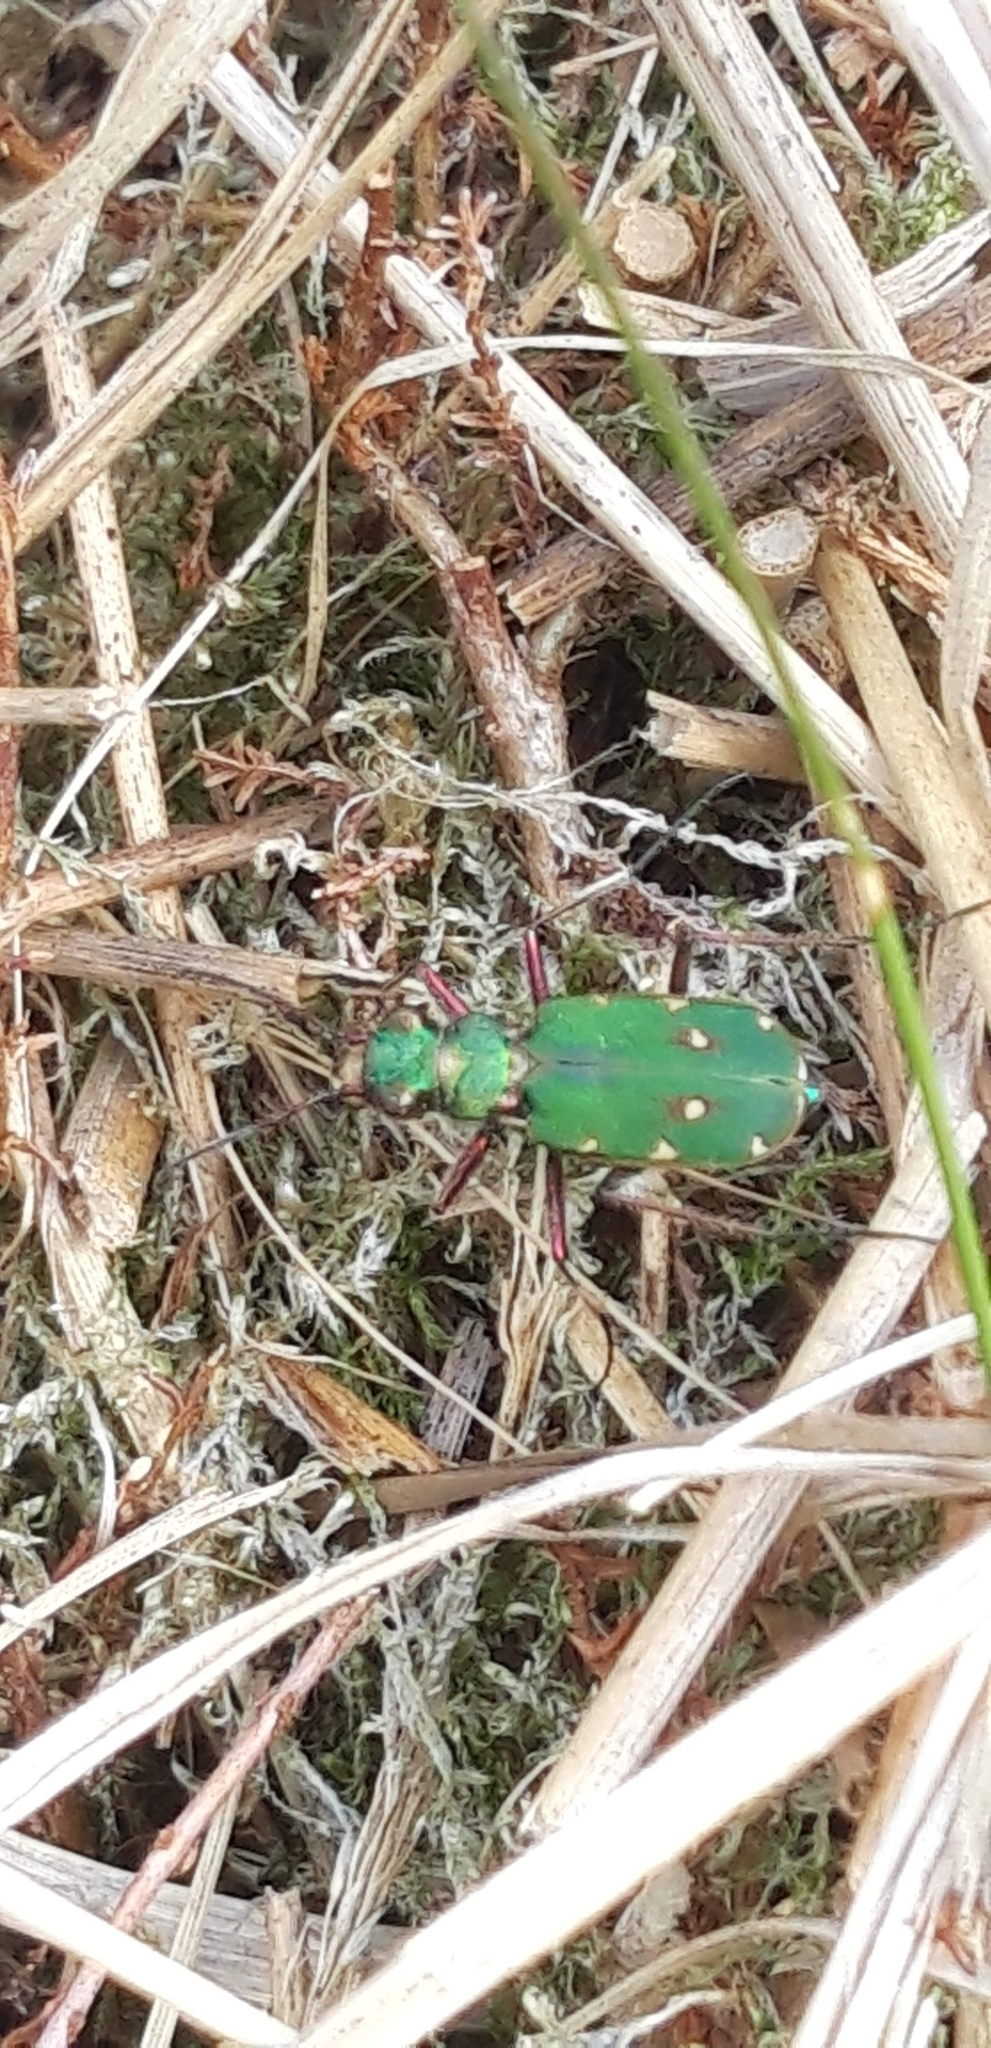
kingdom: Animalia
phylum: Arthropoda
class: Insecta
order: Coleoptera
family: Carabidae
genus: Cicindela
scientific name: Cicindela campestris
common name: Common tiger beetle
